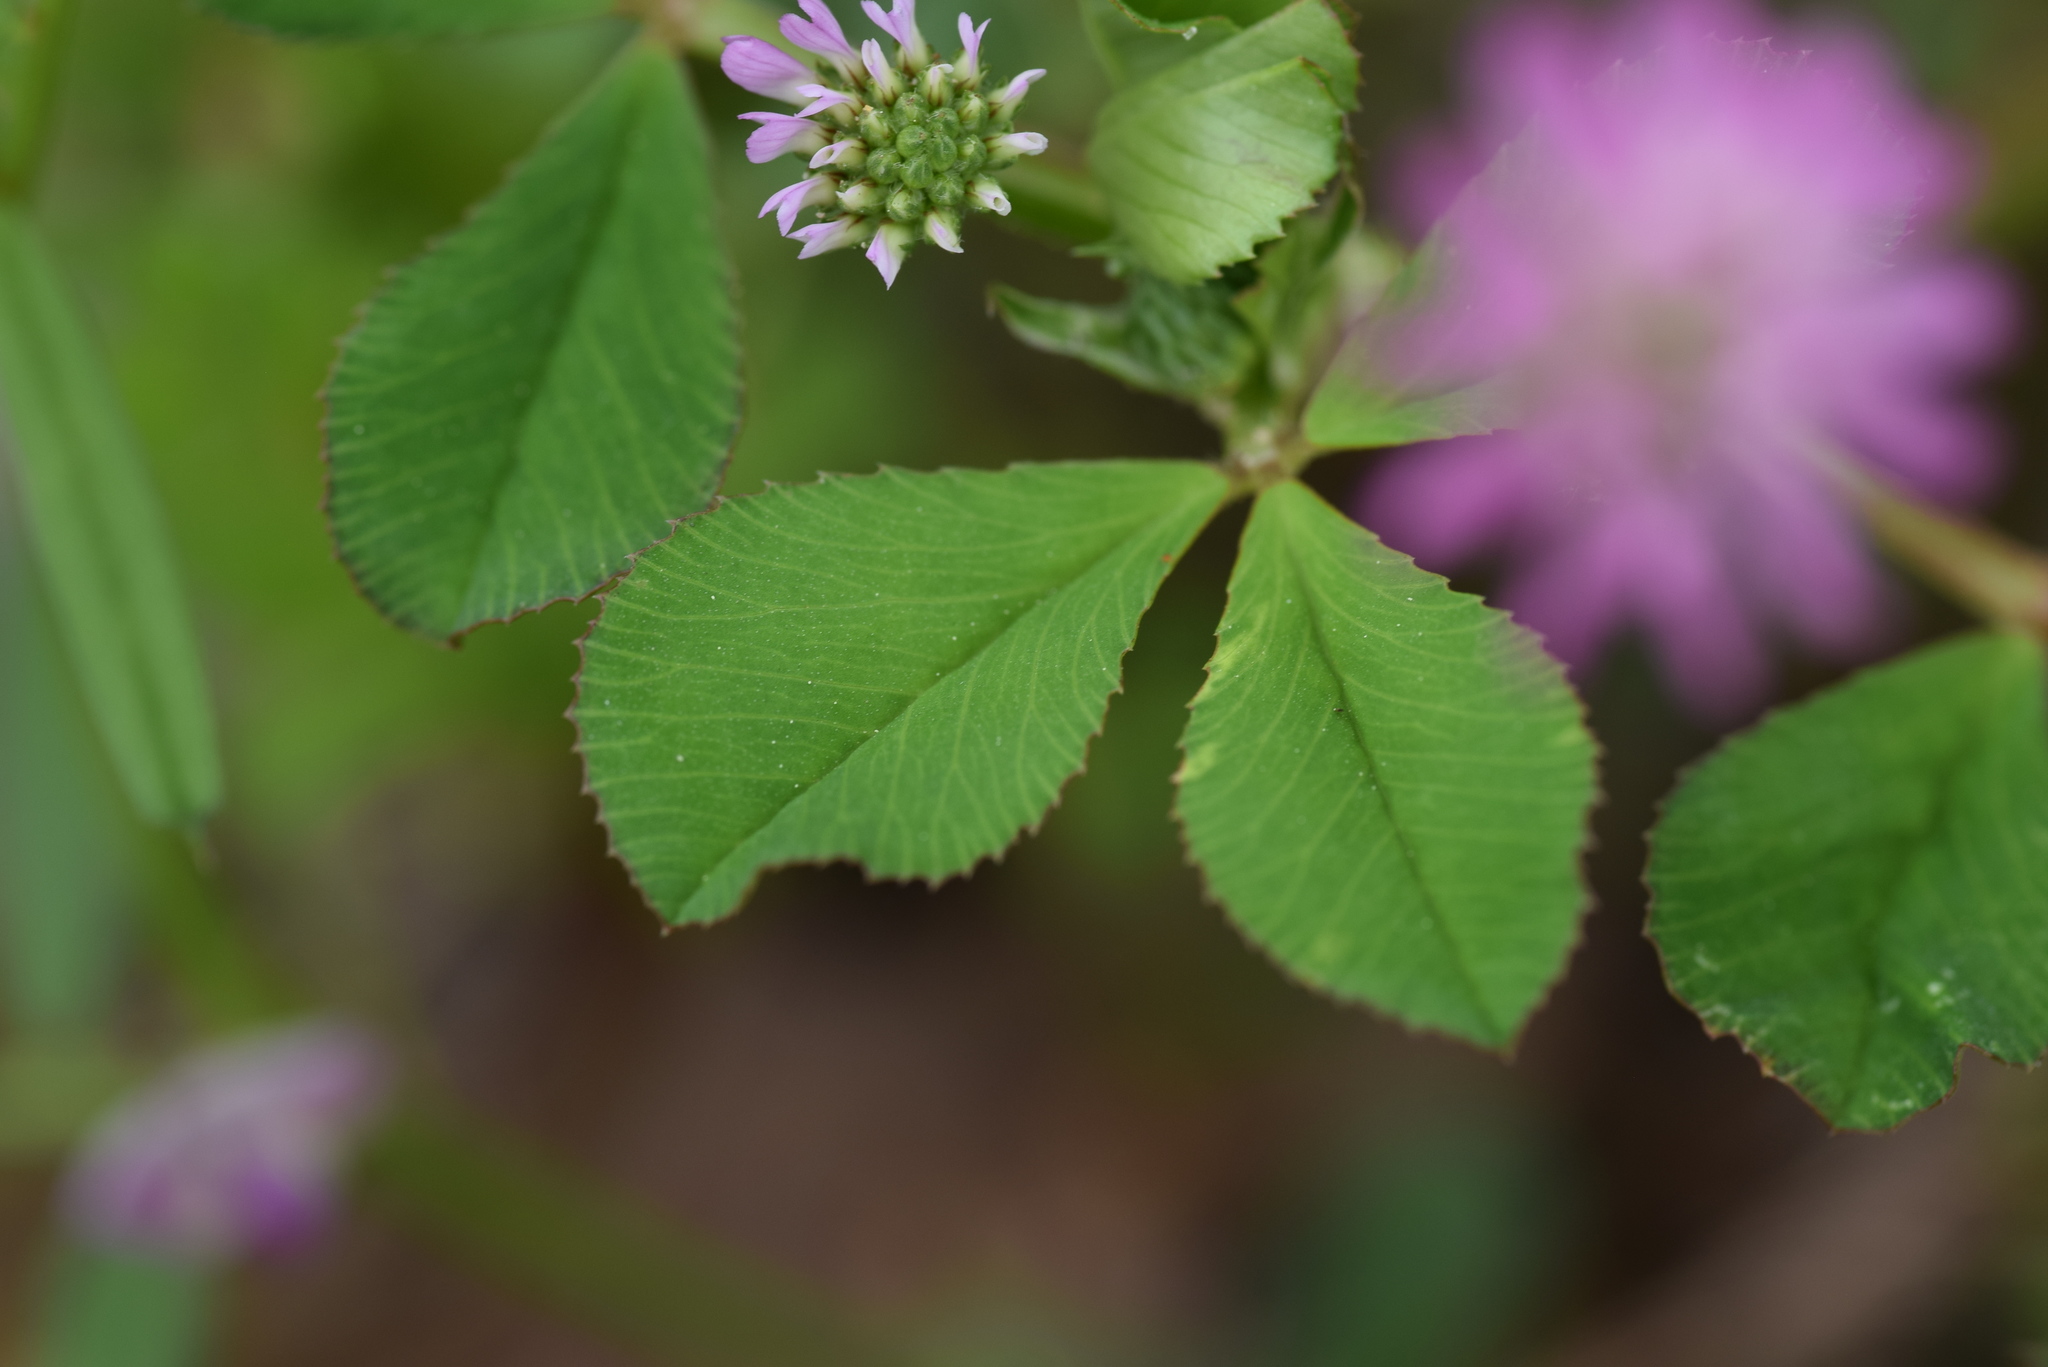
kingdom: Plantae
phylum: Tracheophyta
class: Magnoliopsida
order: Fabales
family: Fabaceae
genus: Trifolium
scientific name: Trifolium resupinatum
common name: Reversed clover
